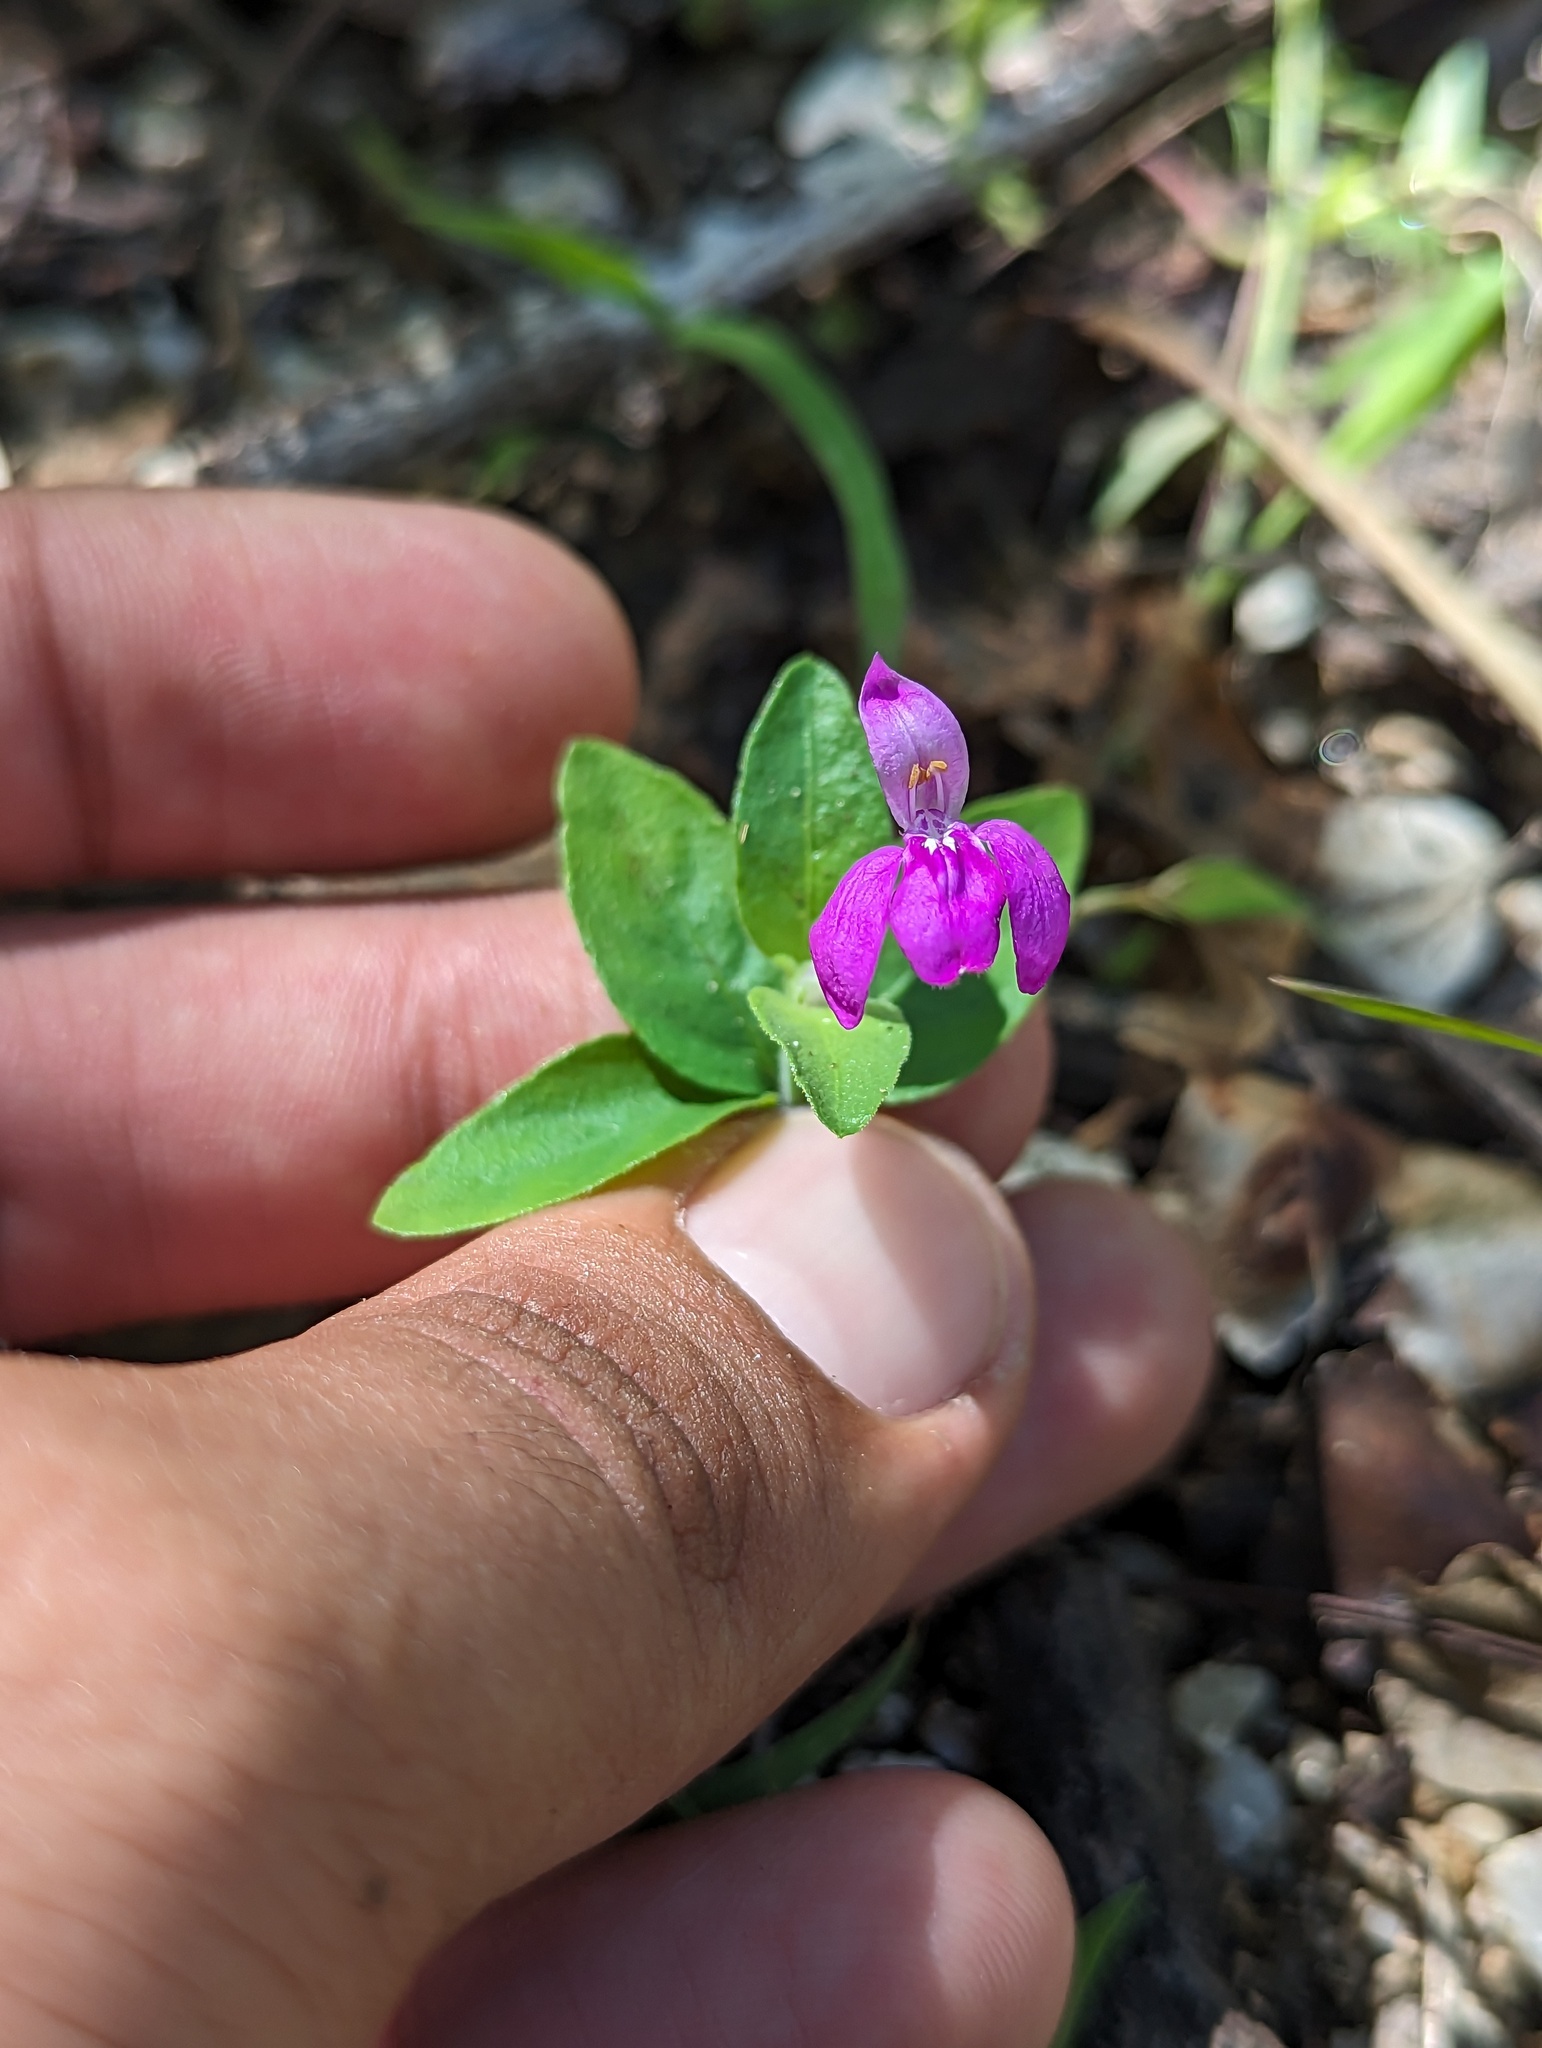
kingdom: Plantae
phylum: Tracheophyta
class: Magnoliopsida
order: Lamiales
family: Acanthaceae
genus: Dianthera
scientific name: Dianthera incerta
